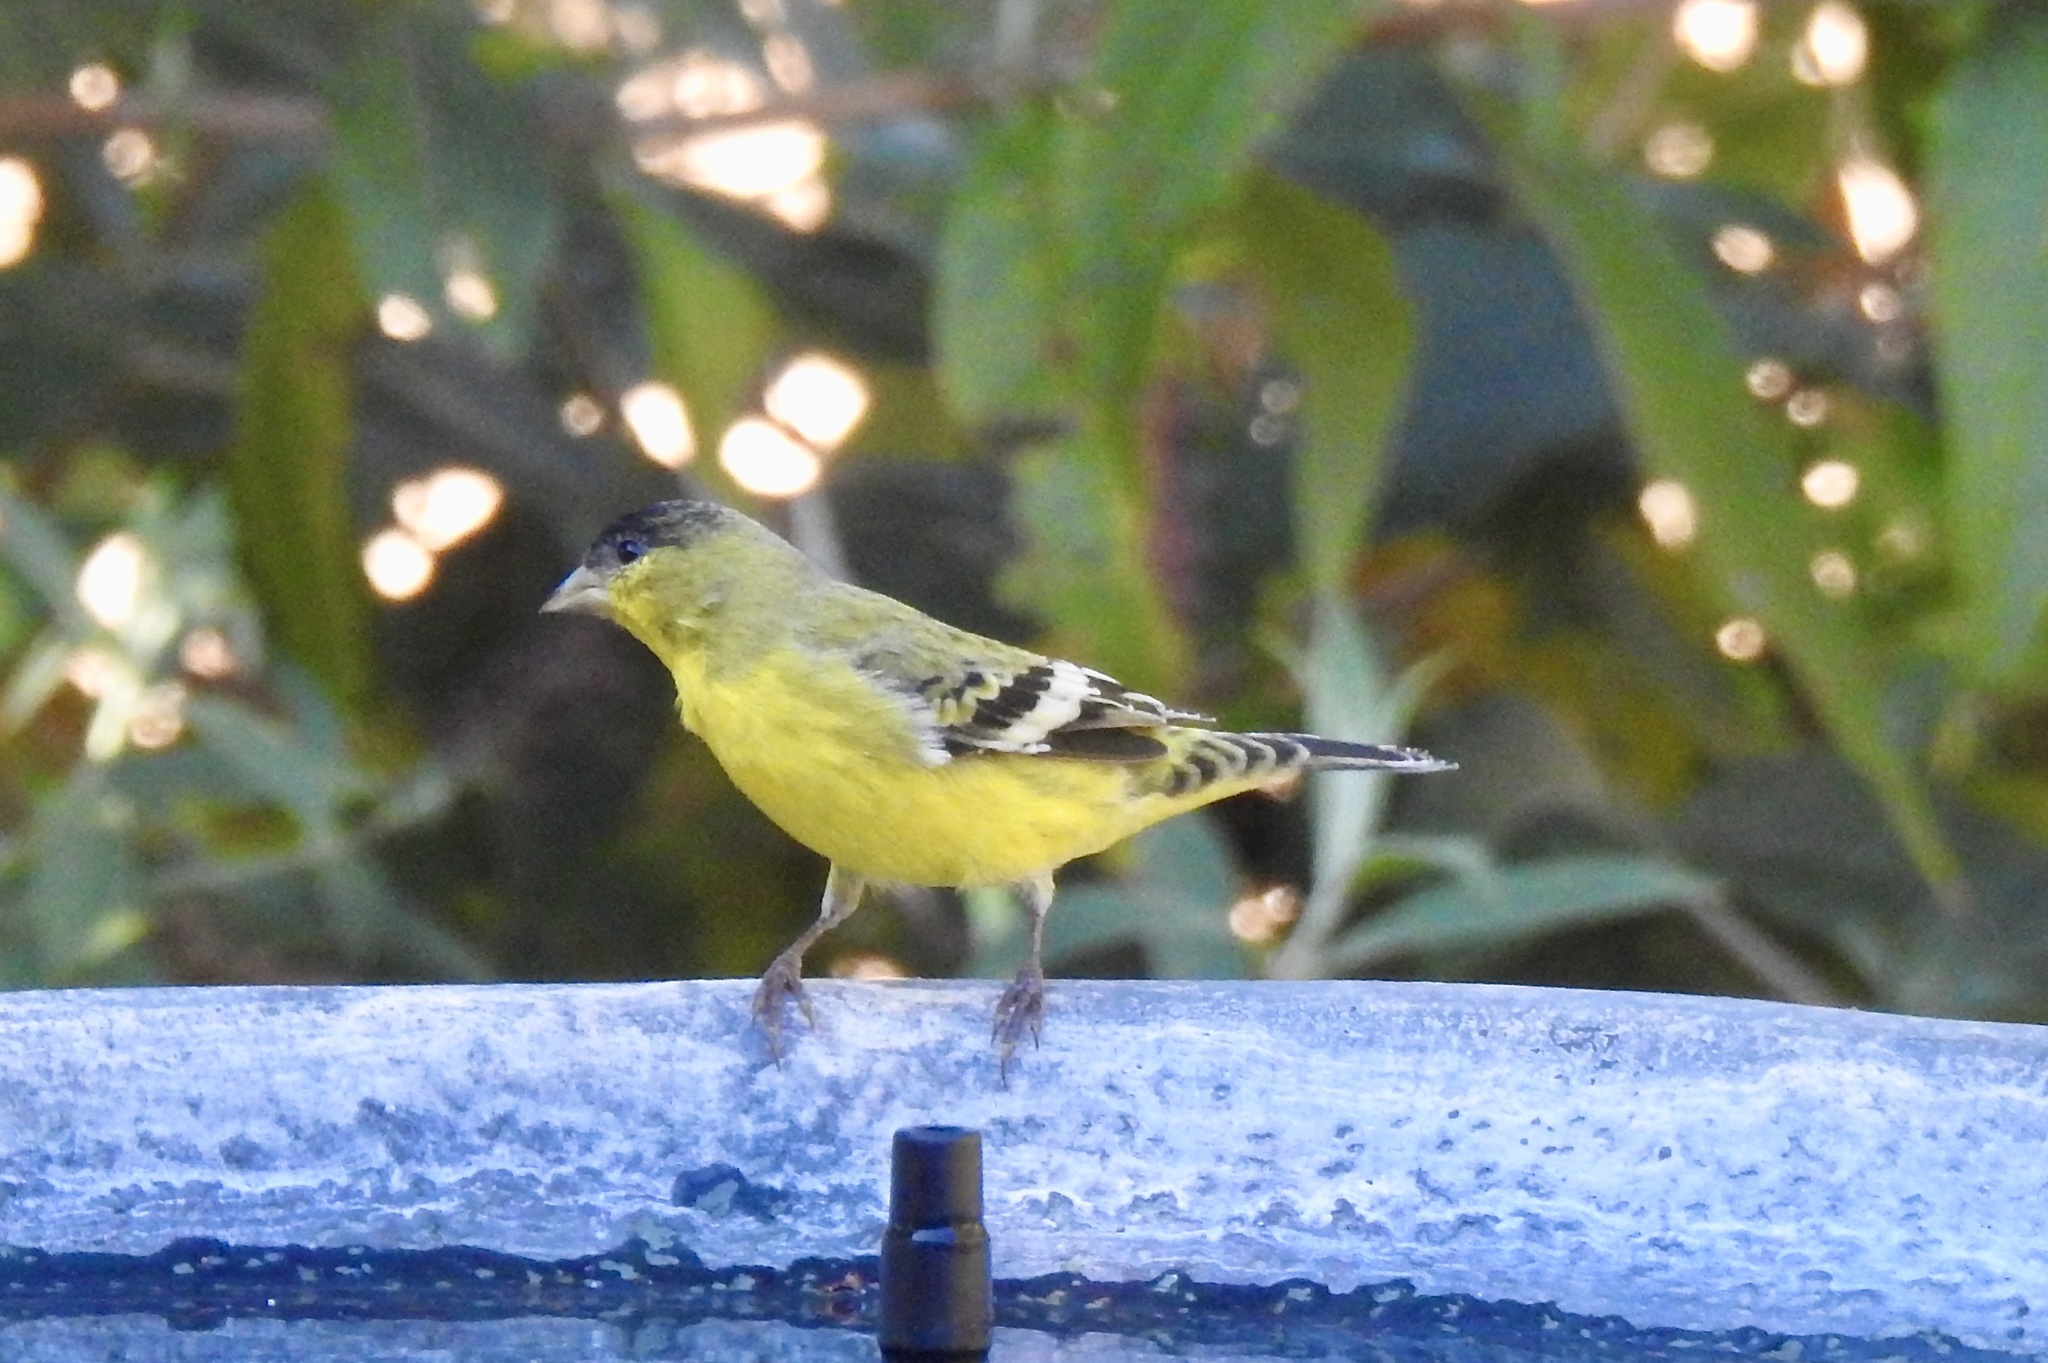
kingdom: Animalia
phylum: Chordata
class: Aves
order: Passeriformes
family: Fringillidae
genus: Spinus
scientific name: Spinus psaltria
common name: Lesser goldfinch
